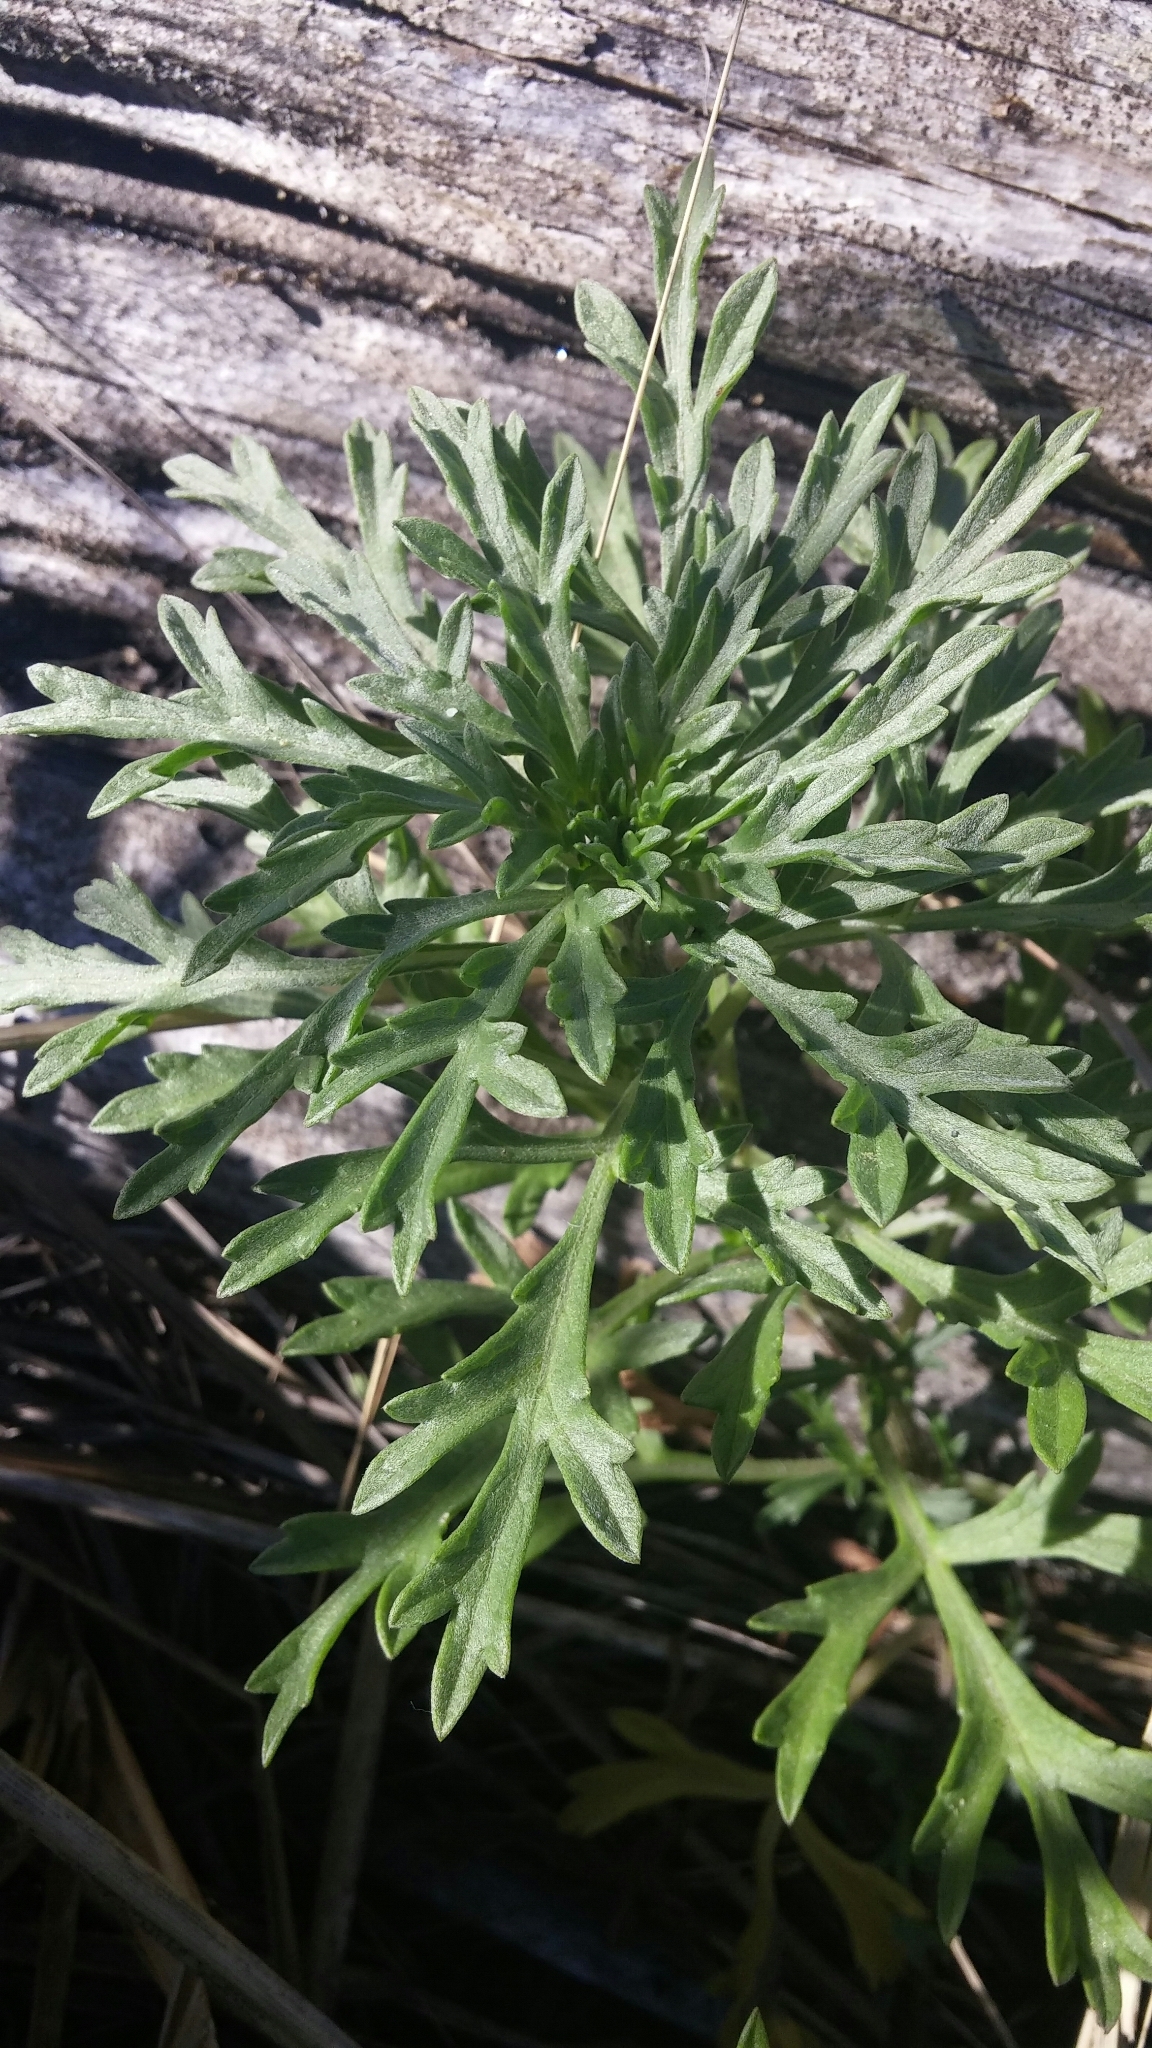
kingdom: Plantae
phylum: Tracheophyta
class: Magnoliopsida
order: Asterales
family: Asteraceae
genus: Ambrosia
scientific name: Ambrosia chamissonis
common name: Beachbur
